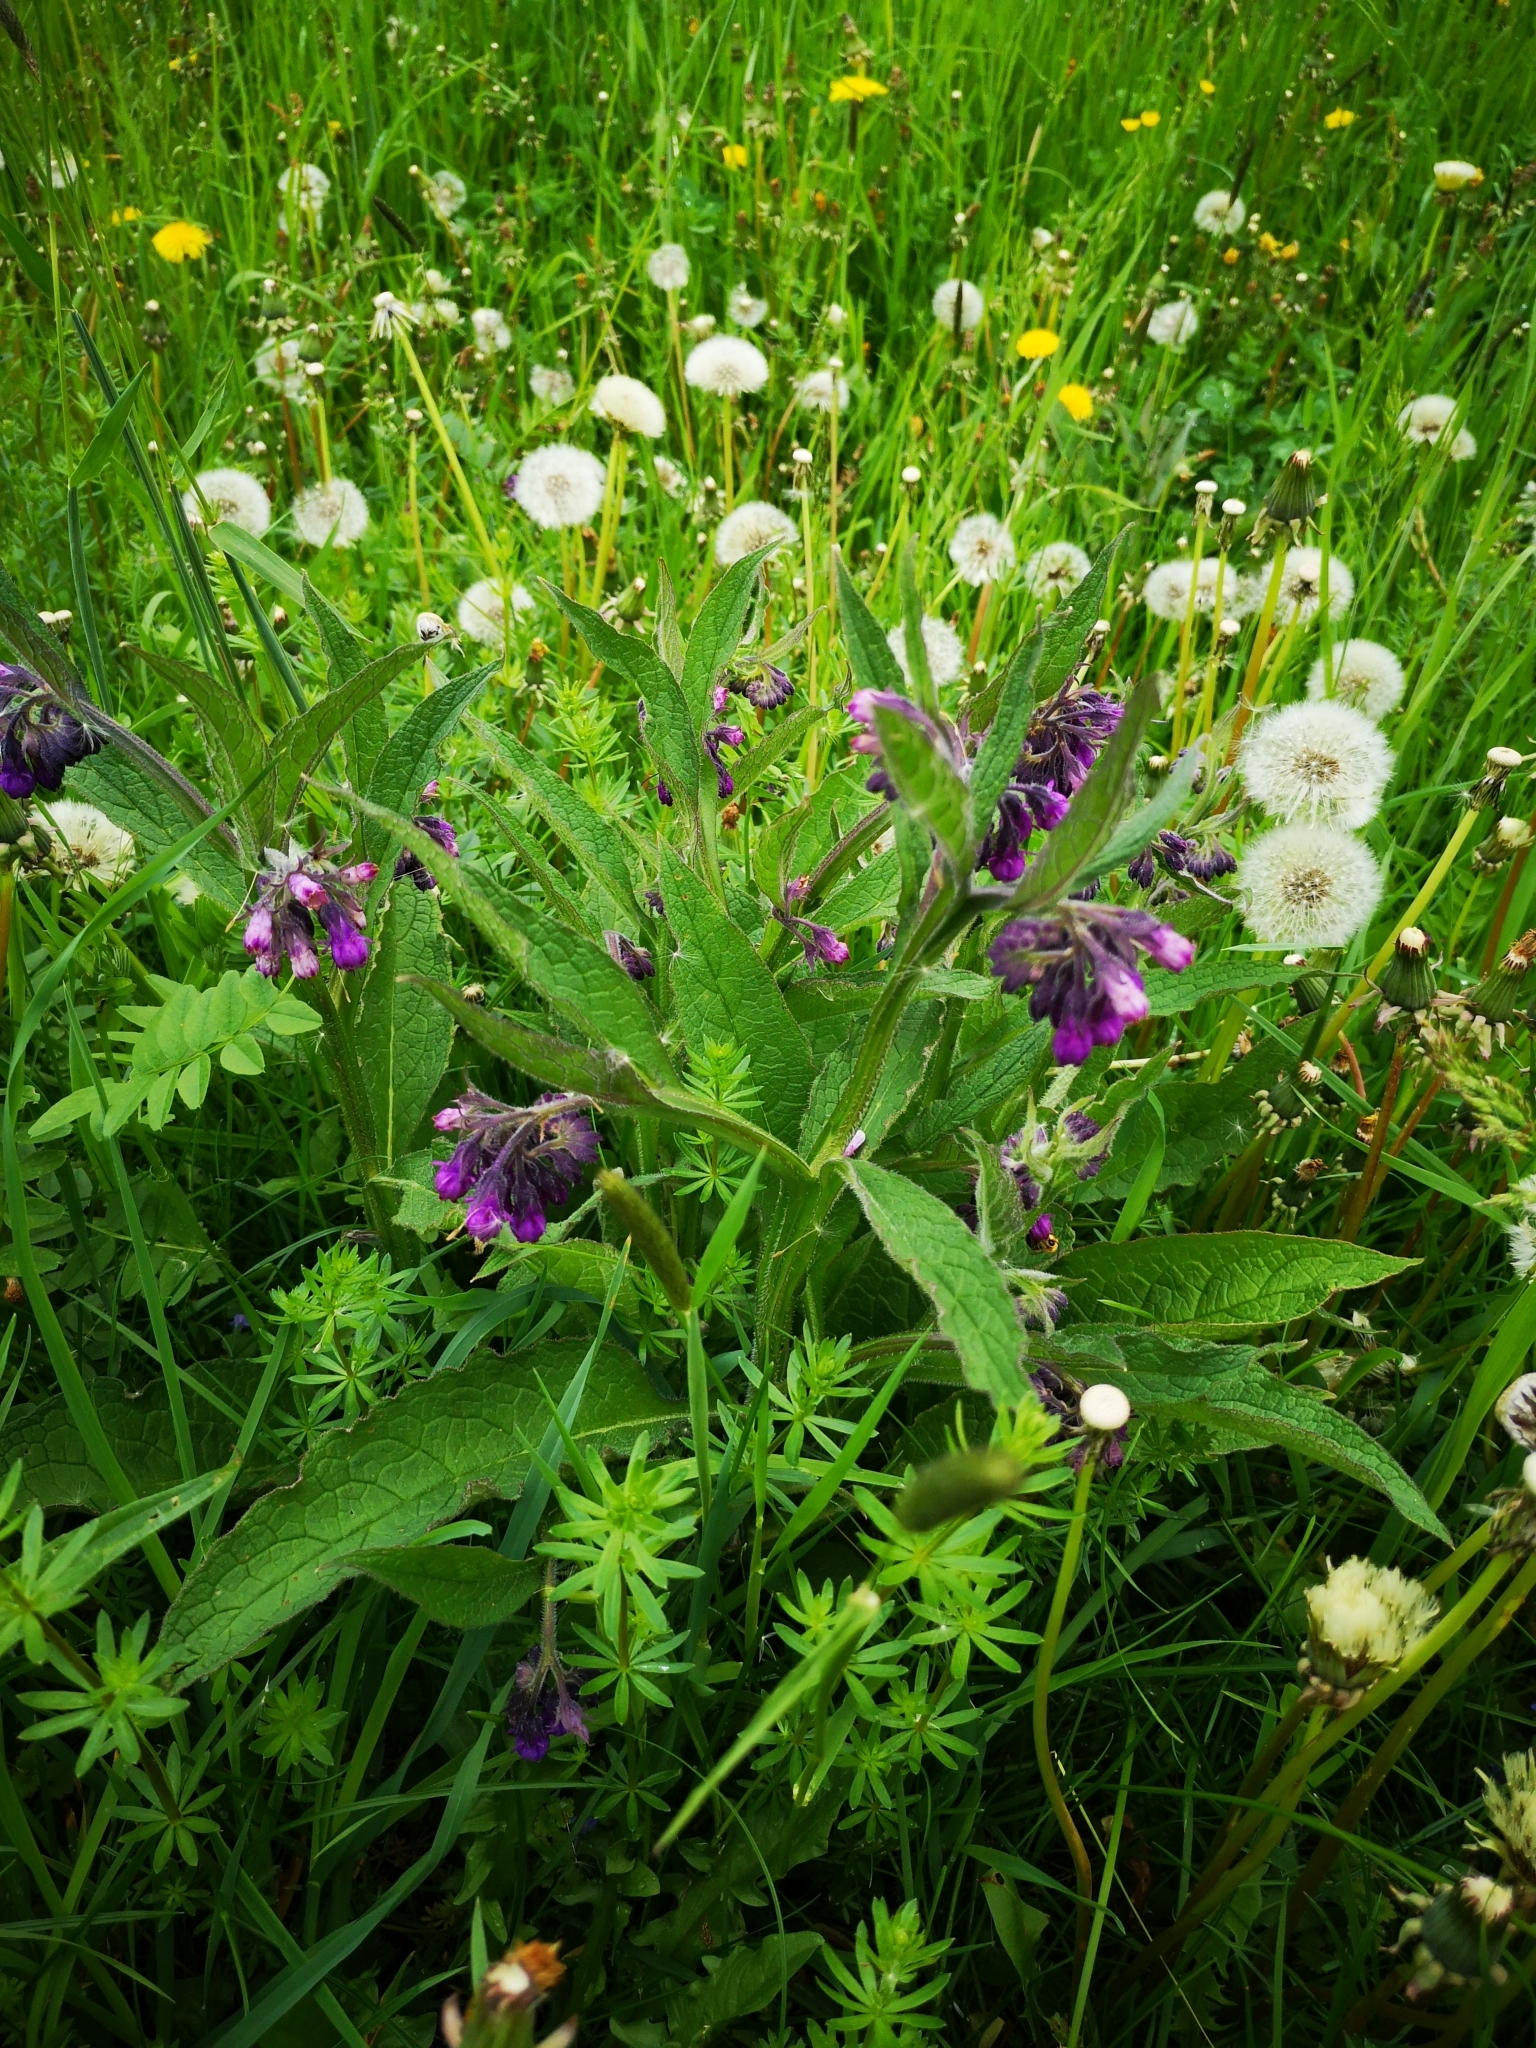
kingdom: Plantae
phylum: Tracheophyta
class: Magnoliopsida
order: Boraginales
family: Boraginaceae
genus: Symphytum
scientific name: Symphytum officinale
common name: Common comfrey
